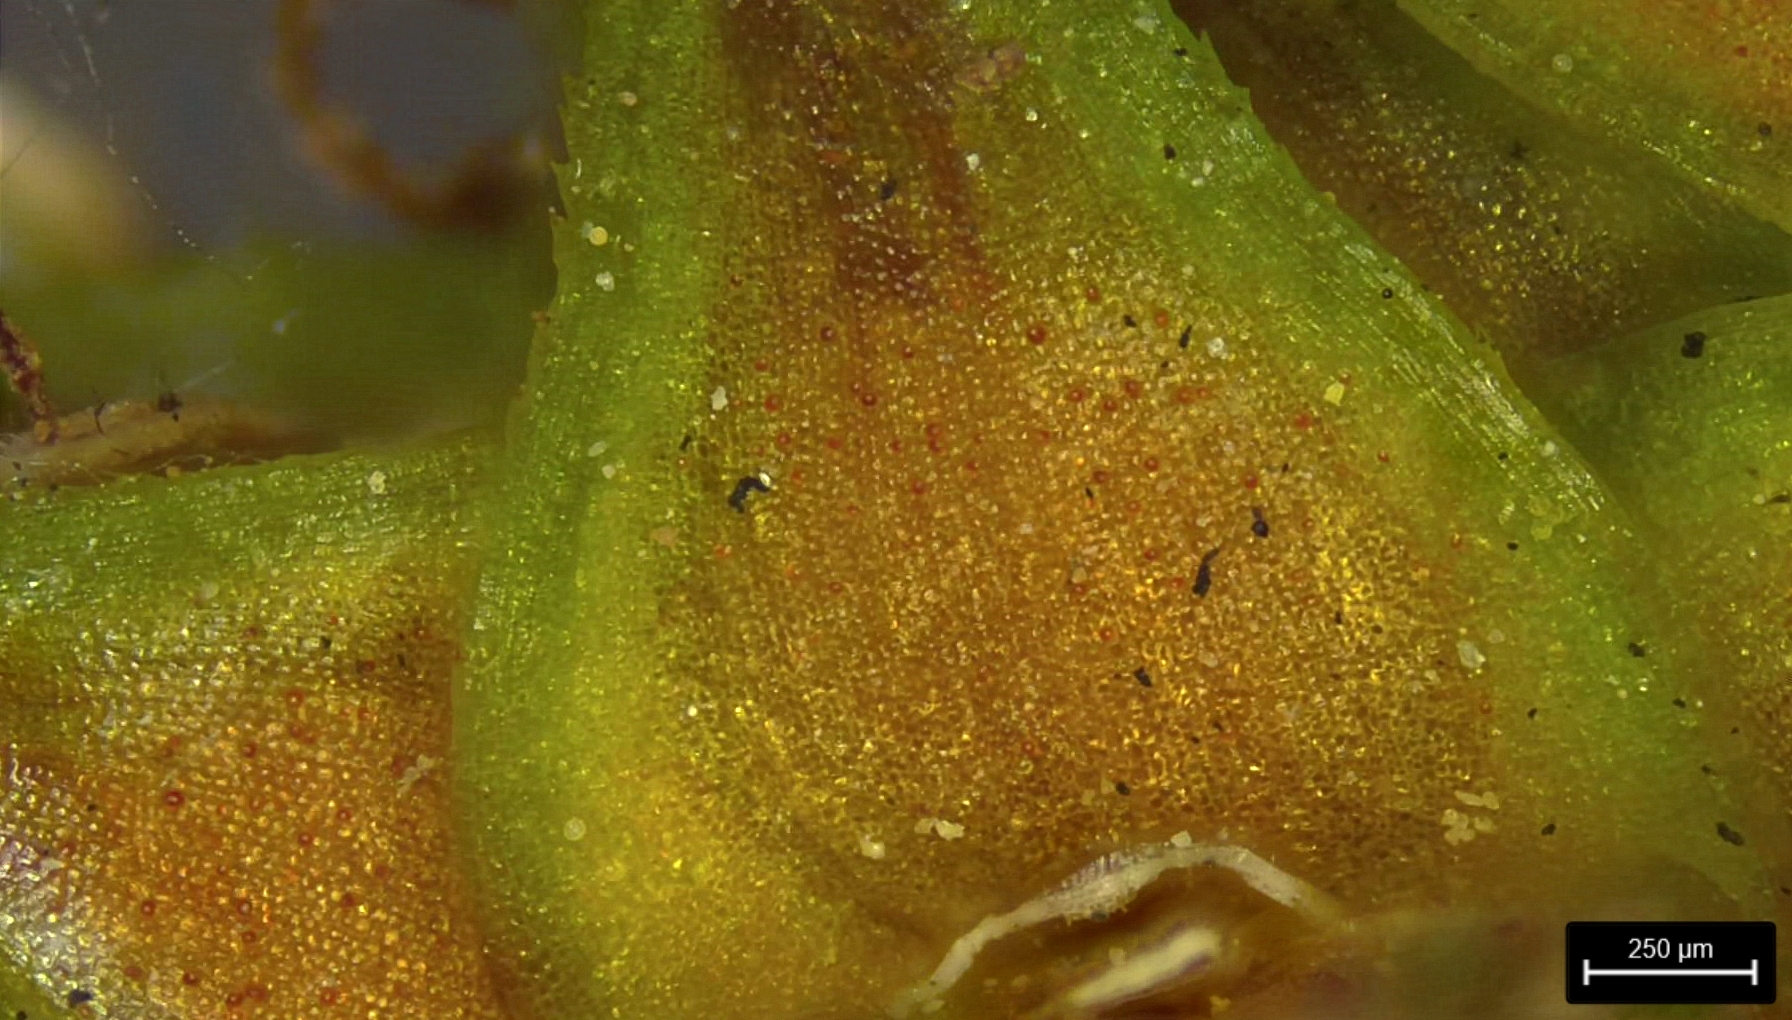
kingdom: Plantae
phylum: Tracheophyta
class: Liliopsida
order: Poales
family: Cyperaceae
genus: Carex
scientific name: Carex triangularis
